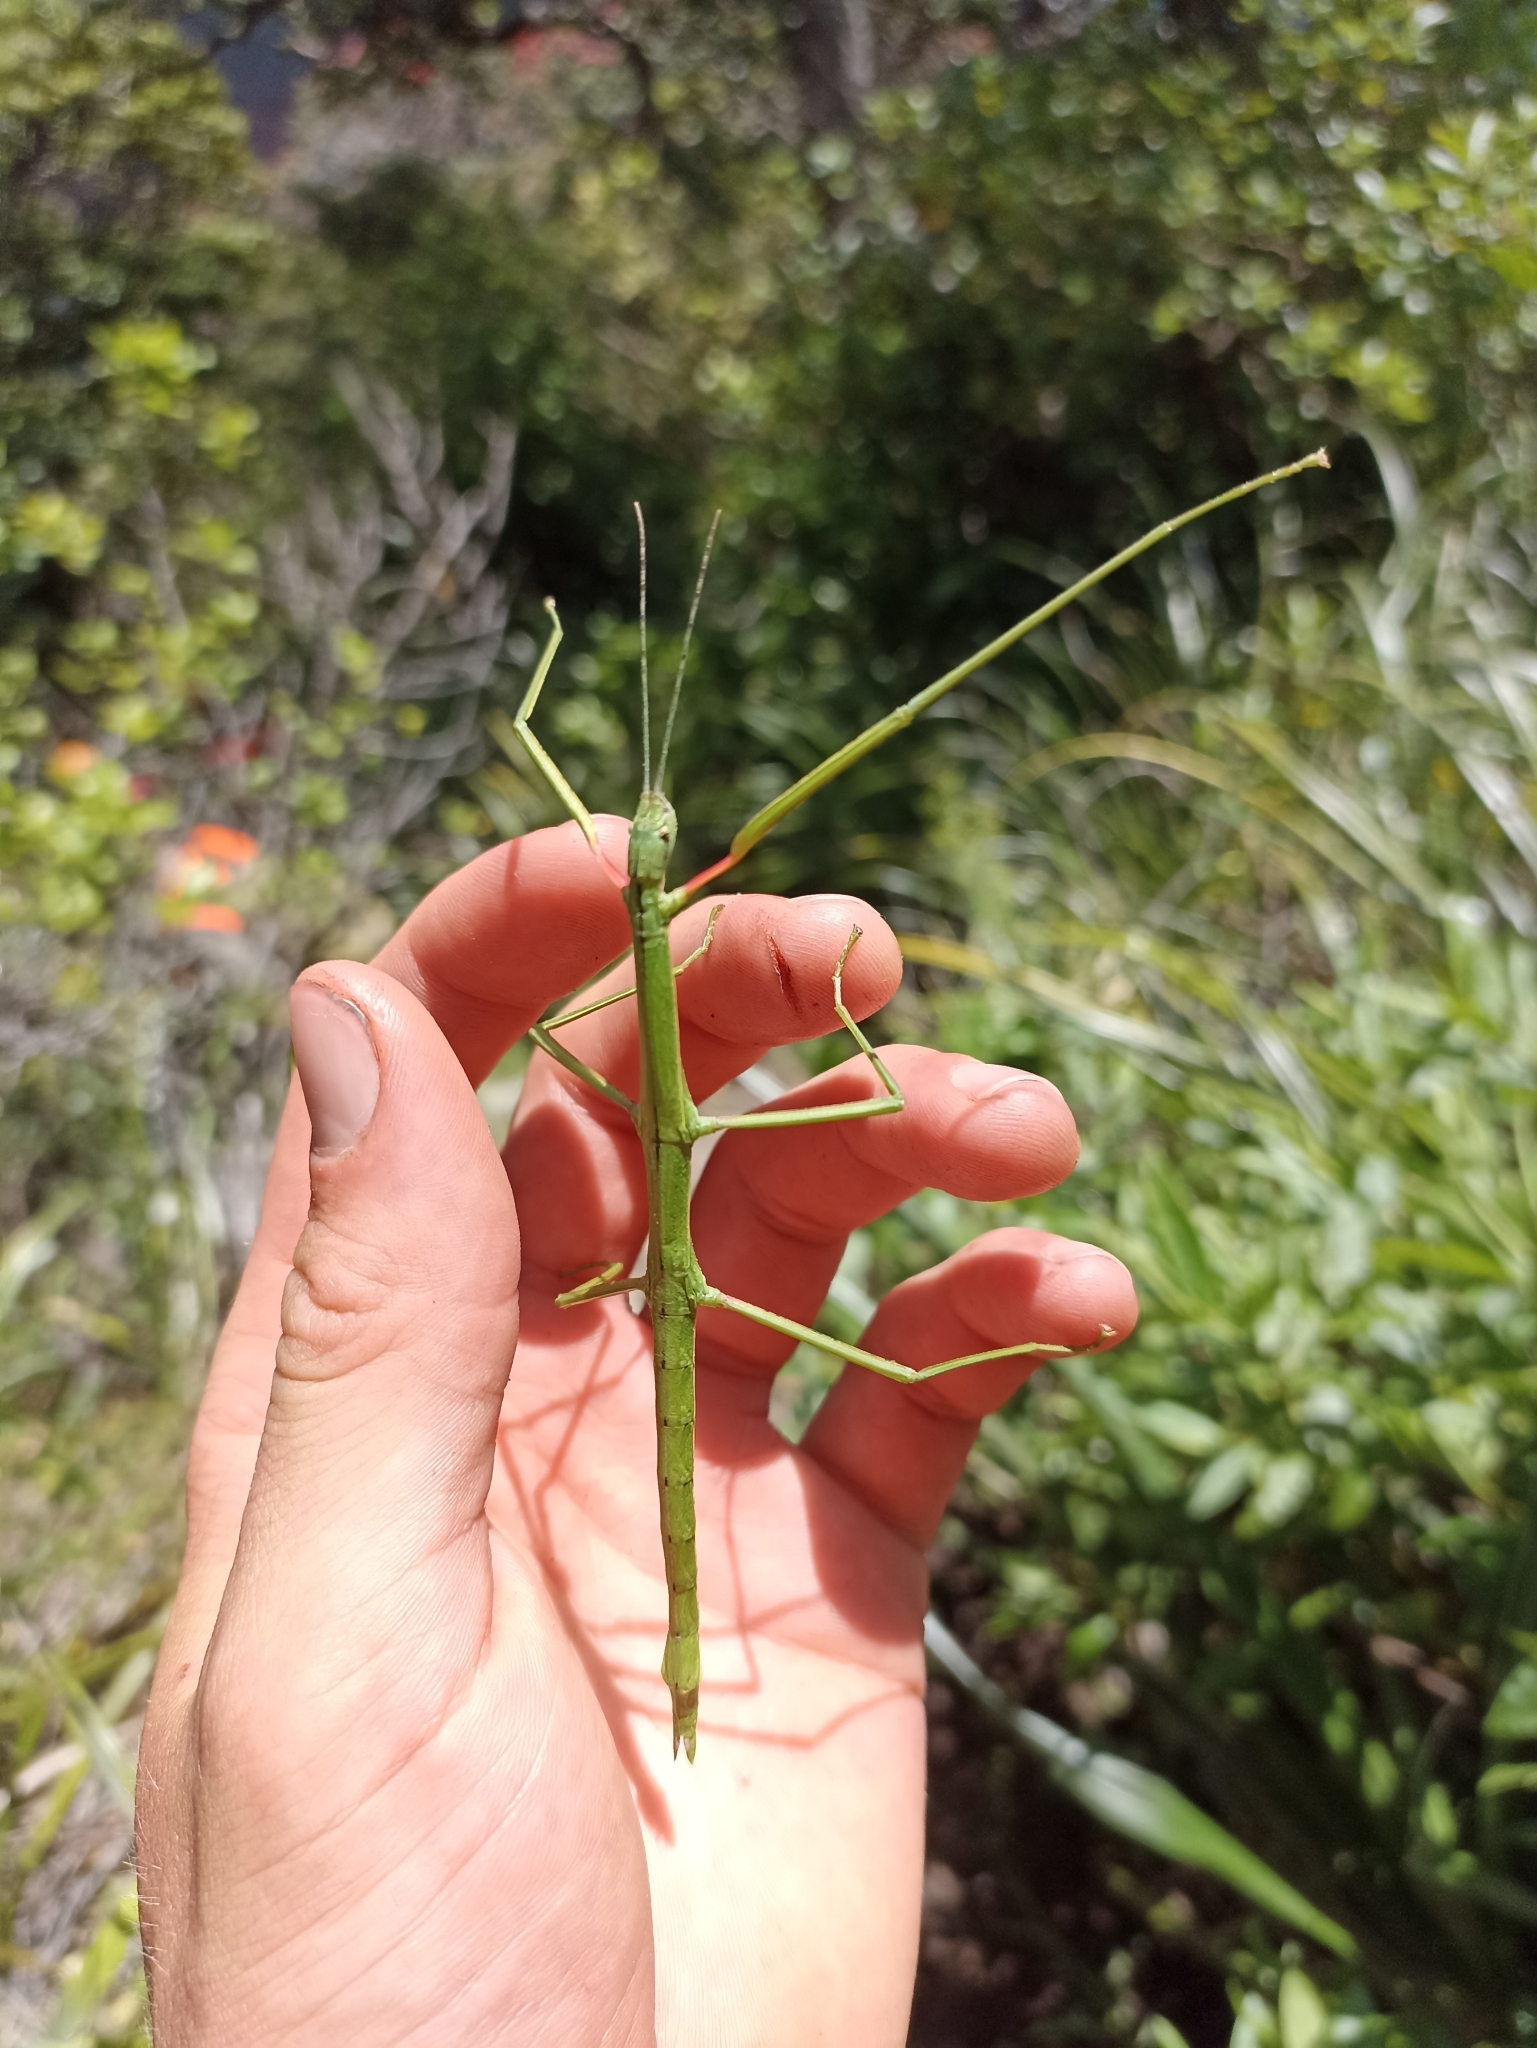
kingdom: Animalia
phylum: Arthropoda
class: Insecta
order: Phasmida
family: Phasmatidae
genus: Clitarchus
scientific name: Clitarchus hookeri
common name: Smooth stick insect
